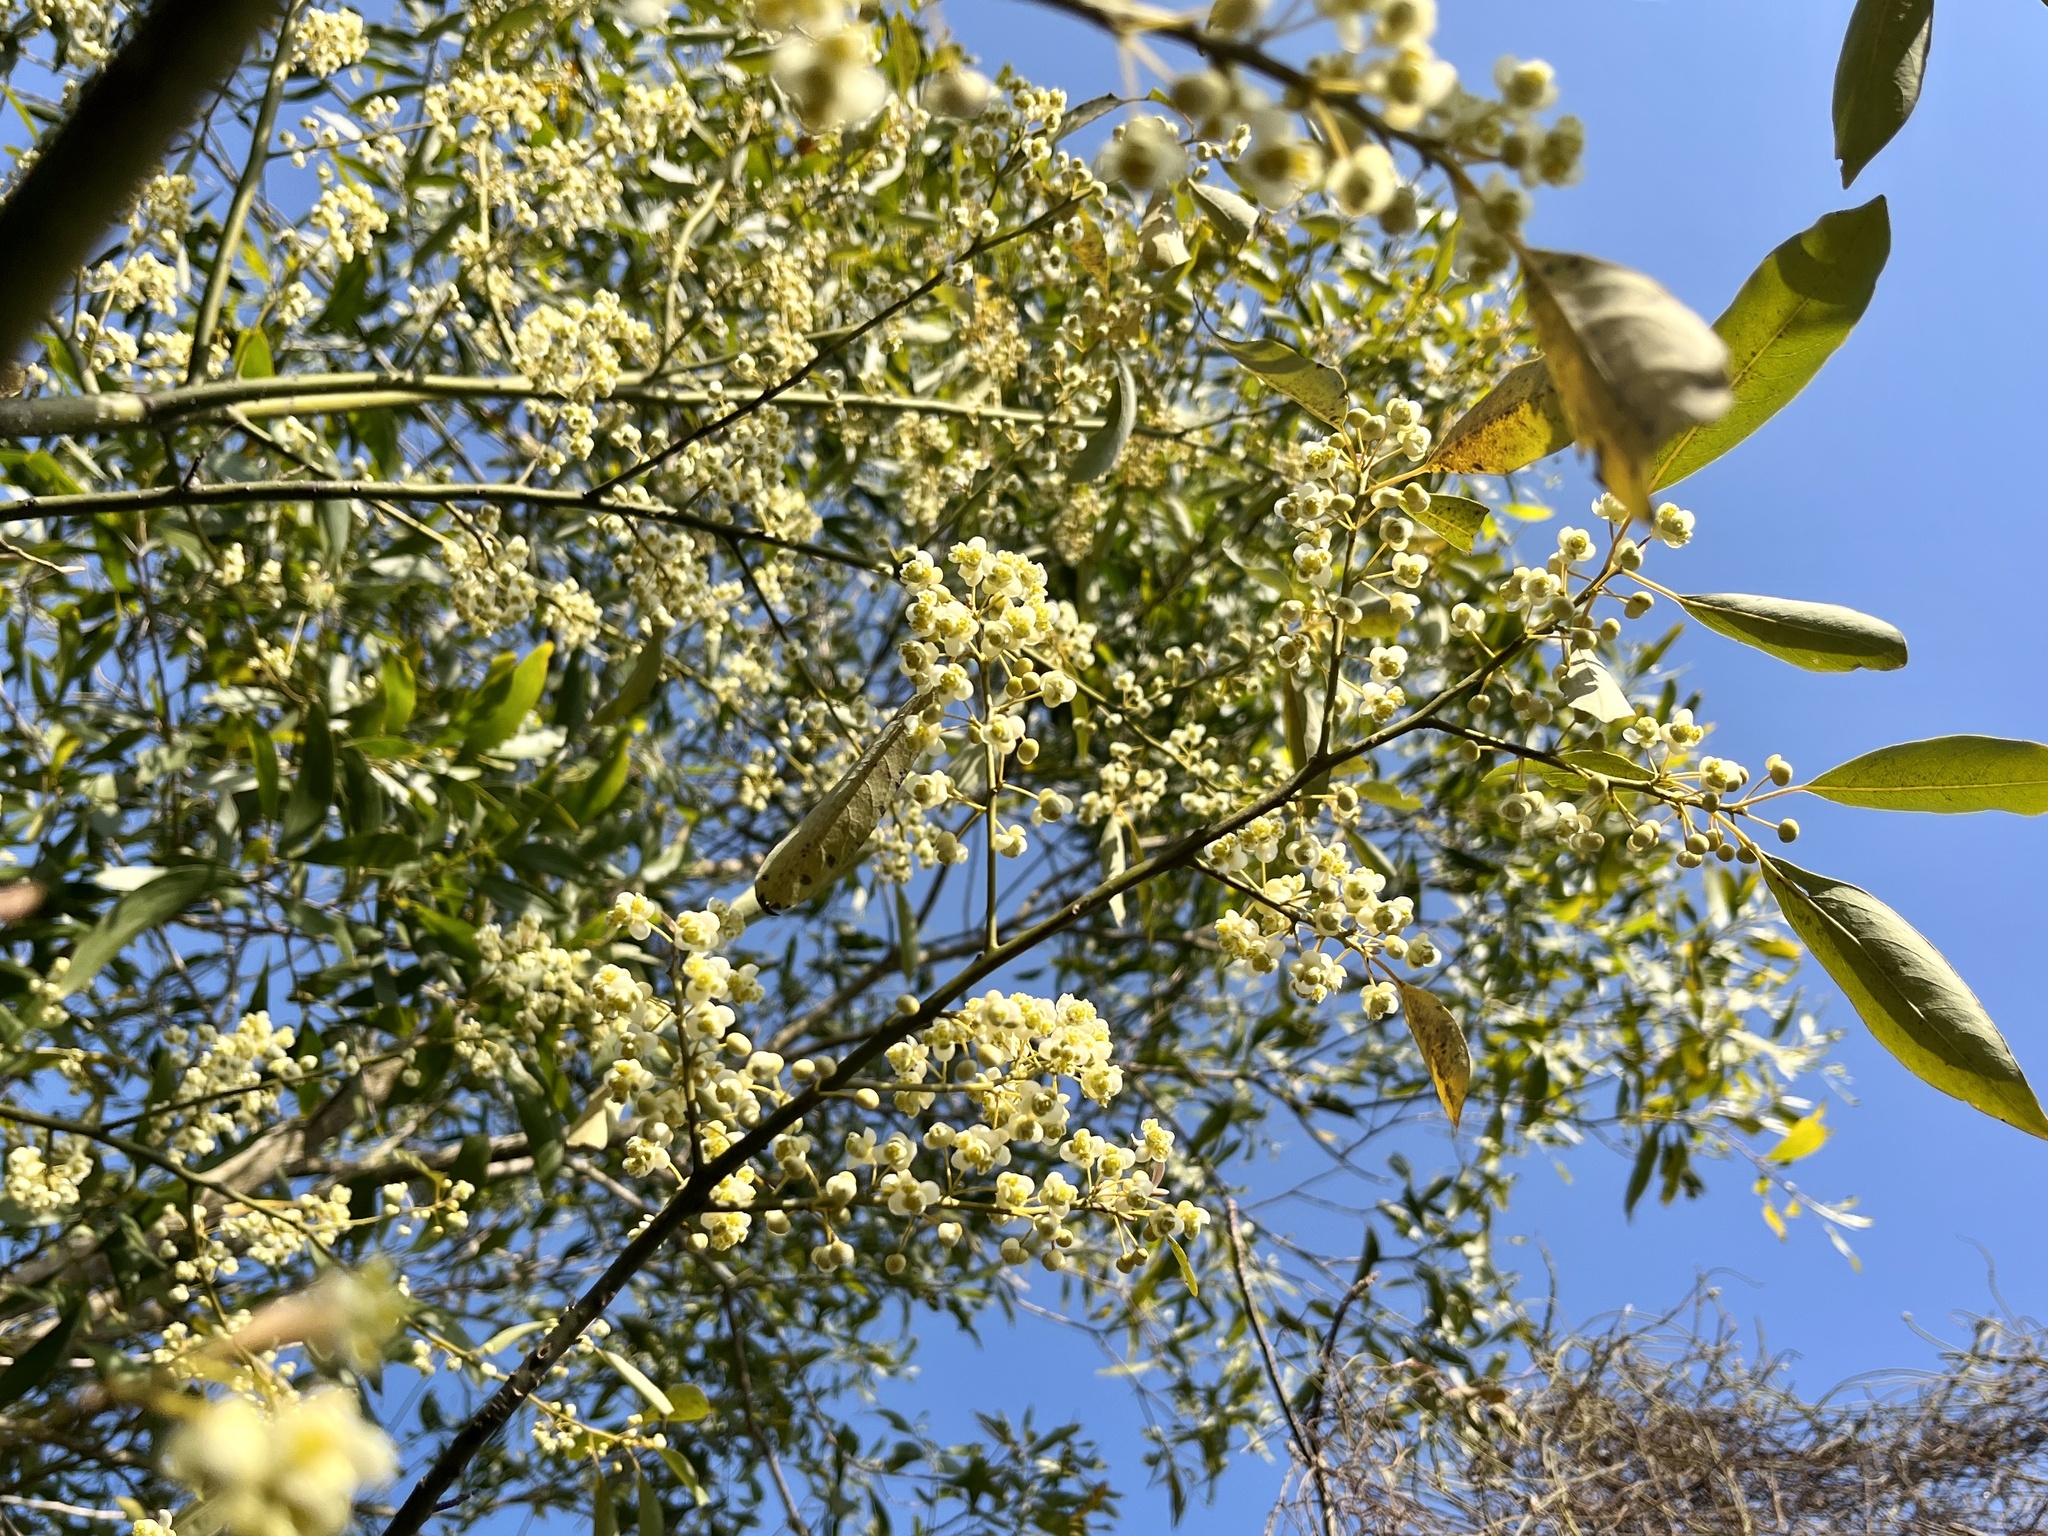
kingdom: Plantae
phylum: Tracheophyta
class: Magnoliopsida
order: Laurales
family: Lauraceae
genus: Litsea
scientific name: Litsea cubeba
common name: Mountain-pepper
